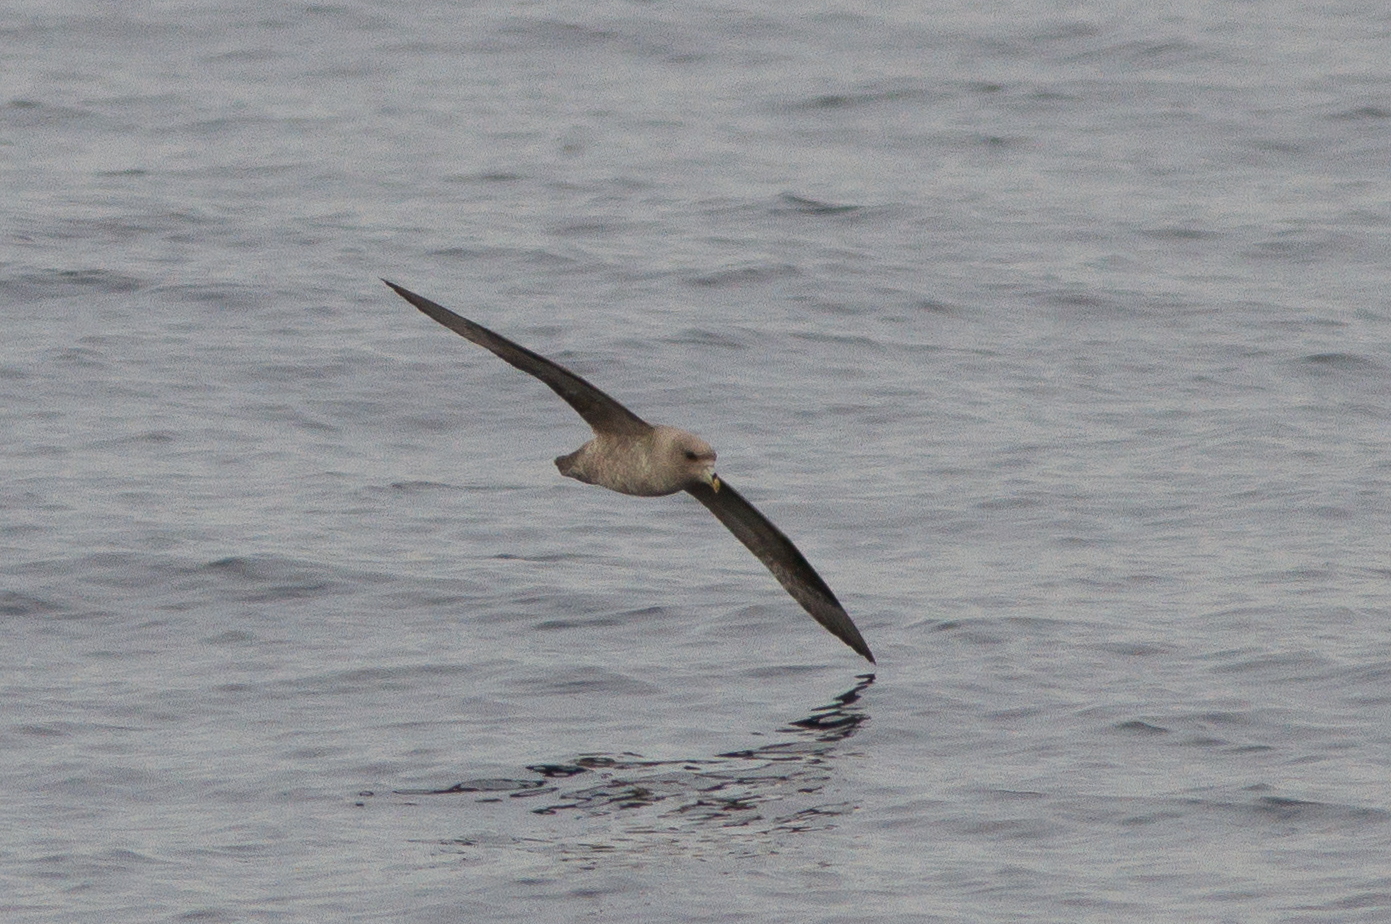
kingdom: Animalia
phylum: Chordata
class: Aves
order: Procellariiformes
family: Procellariidae
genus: Fulmarus
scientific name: Fulmarus glacialis
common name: Northern fulmar
